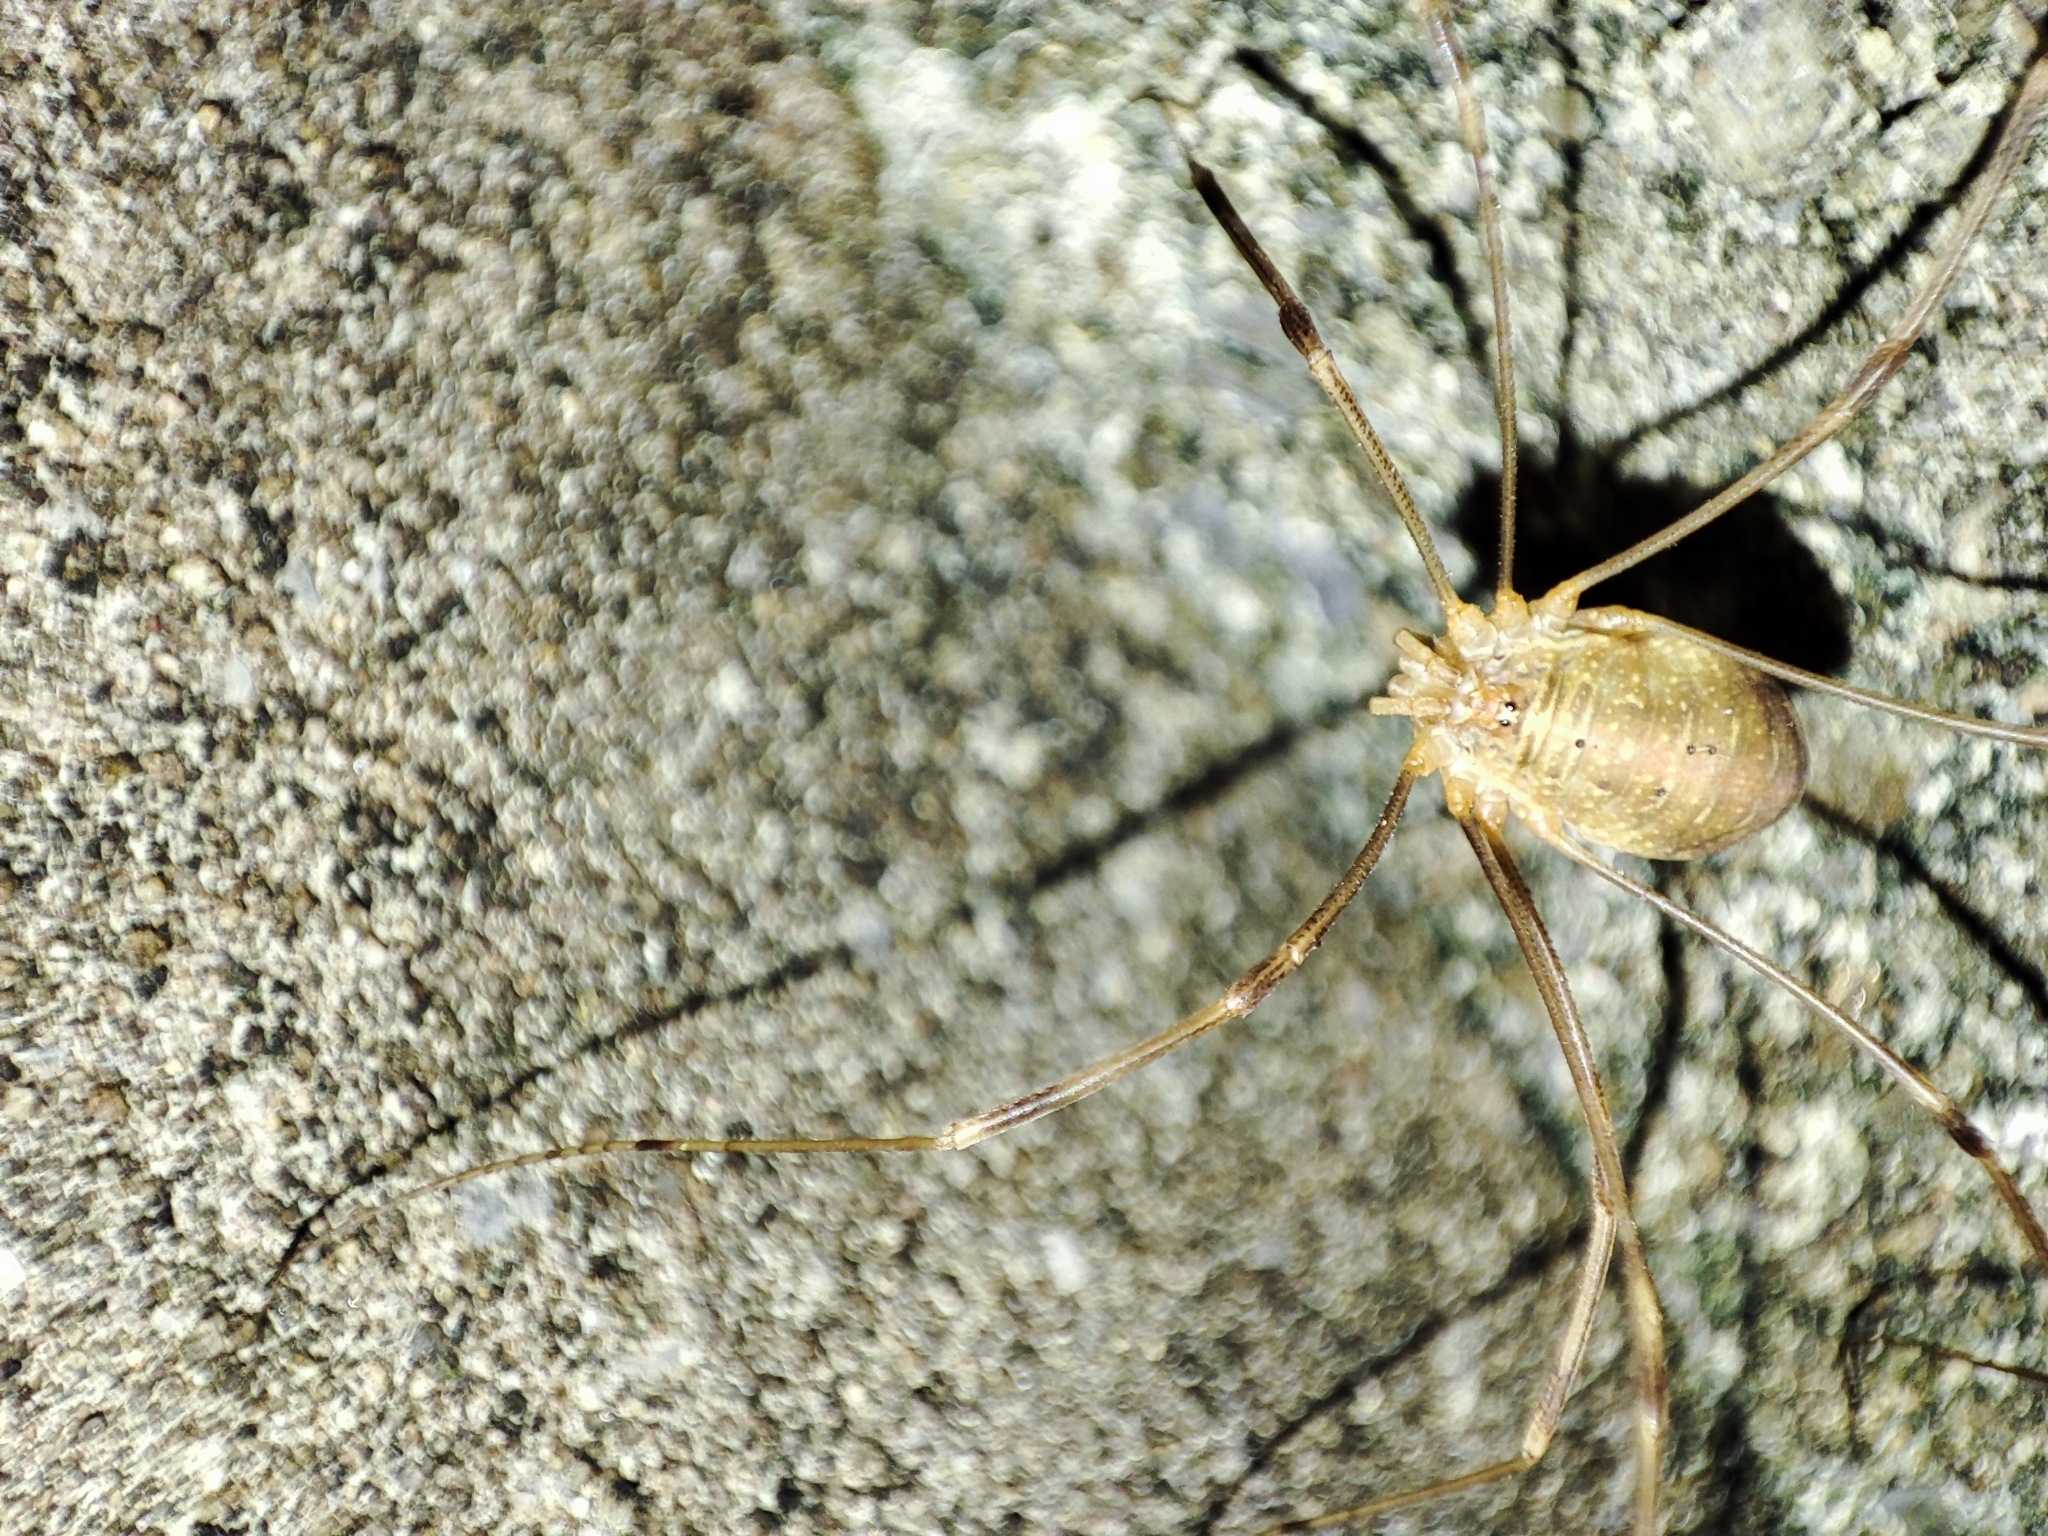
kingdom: Animalia
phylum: Arthropoda
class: Arachnida
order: Opiliones
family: Phalangiidae
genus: Opilio
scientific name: Opilio canestrinii
